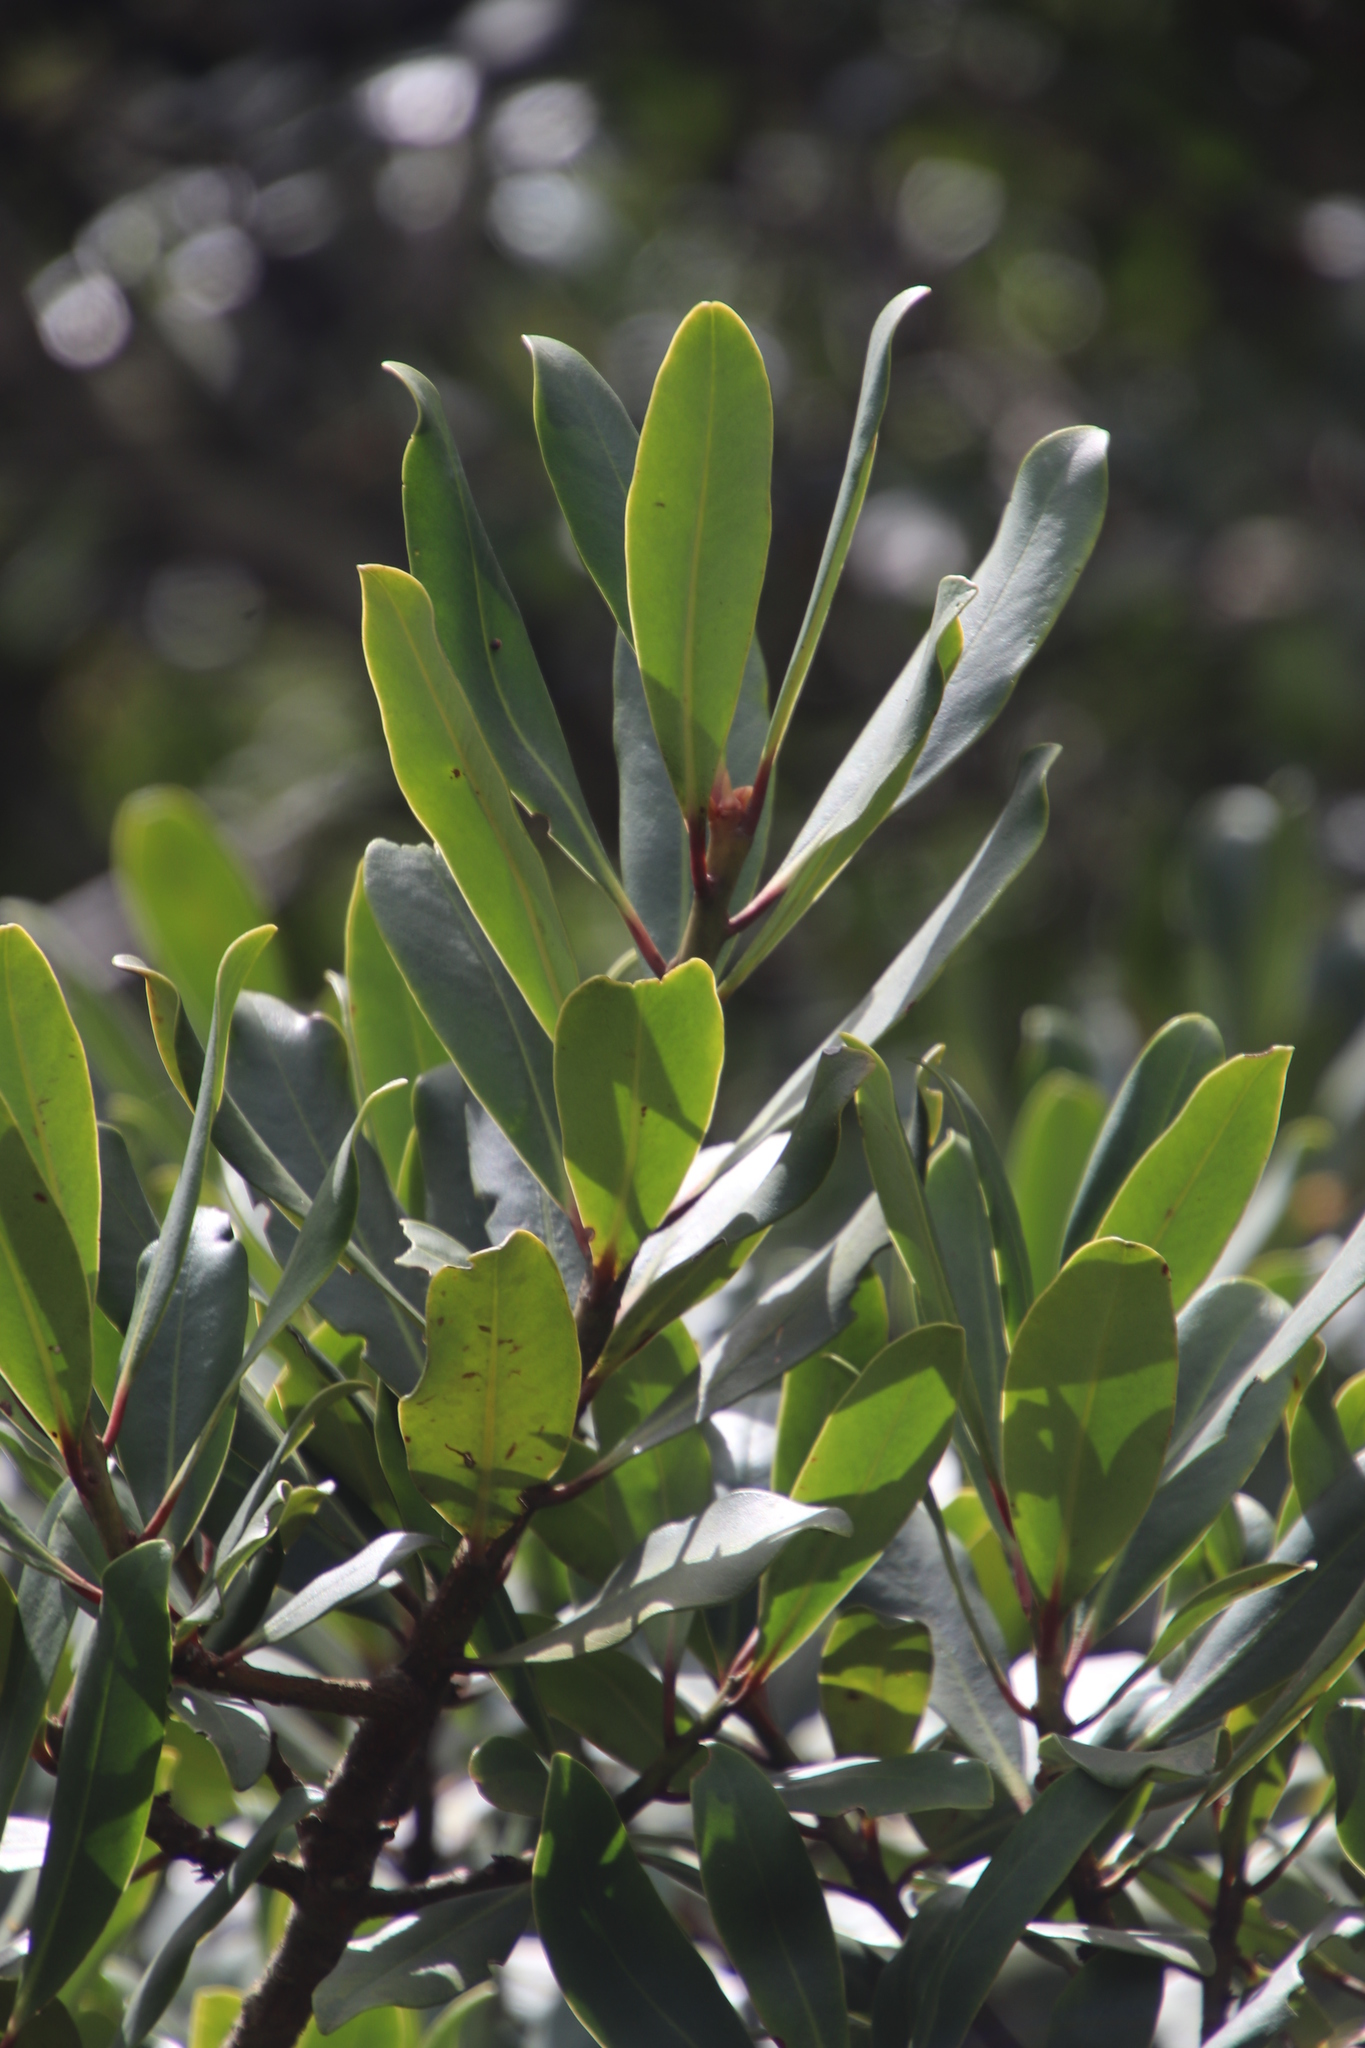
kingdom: Plantae
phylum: Tracheophyta
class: Magnoliopsida
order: Ericales
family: Primulaceae
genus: Myrsine
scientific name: Myrsine melanophloeos
